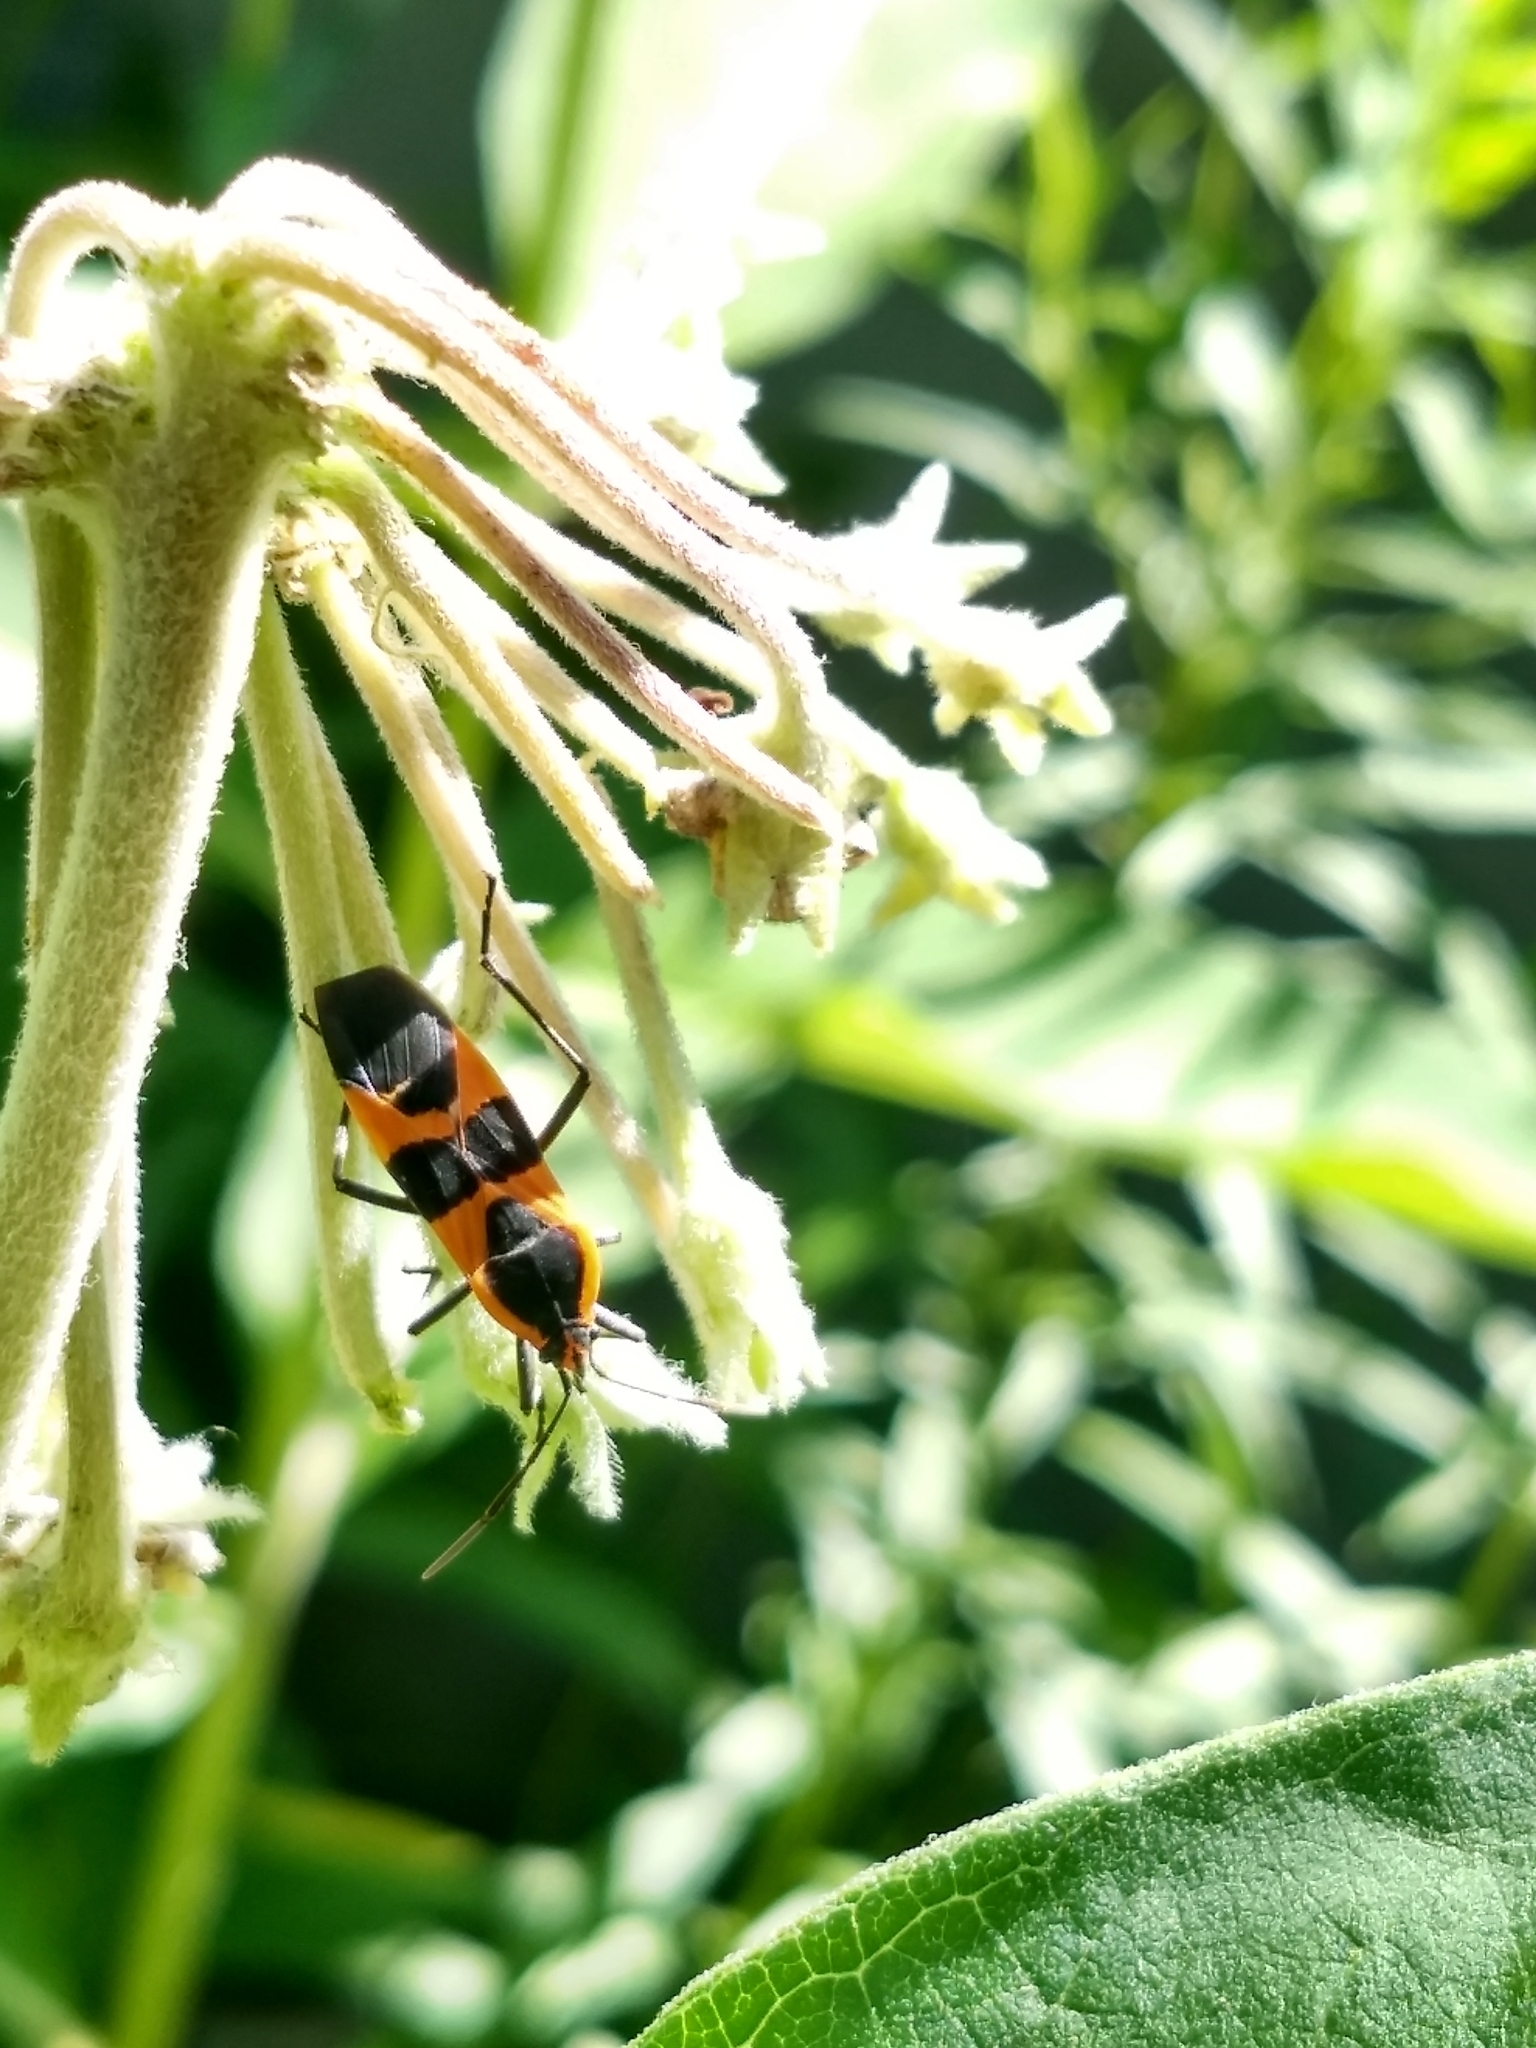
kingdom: Animalia
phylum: Arthropoda
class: Insecta
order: Hemiptera
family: Lygaeidae
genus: Oncopeltus
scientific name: Oncopeltus fasciatus
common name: Large milkweed bug
